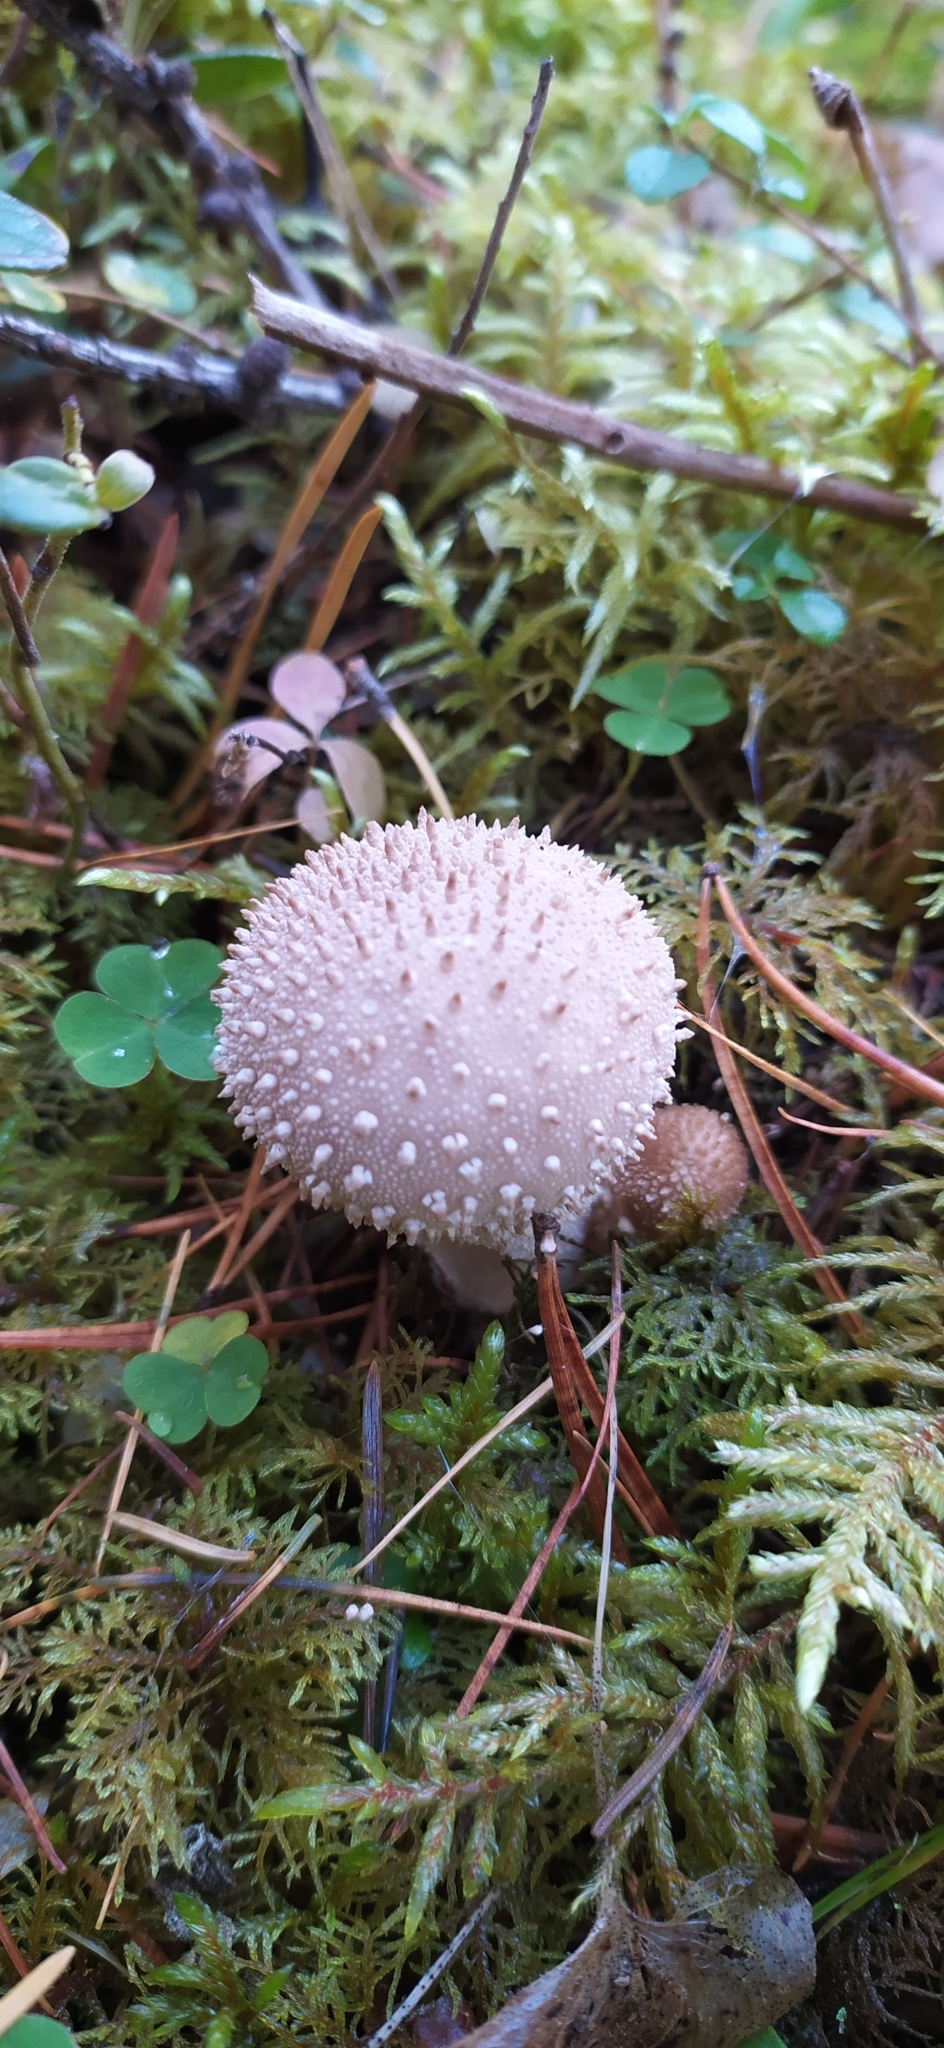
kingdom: Fungi
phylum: Basidiomycota
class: Agaricomycetes
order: Agaricales
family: Lycoperdaceae
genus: Lycoperdon
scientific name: Lycoperdon perlatum
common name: Common puffball
